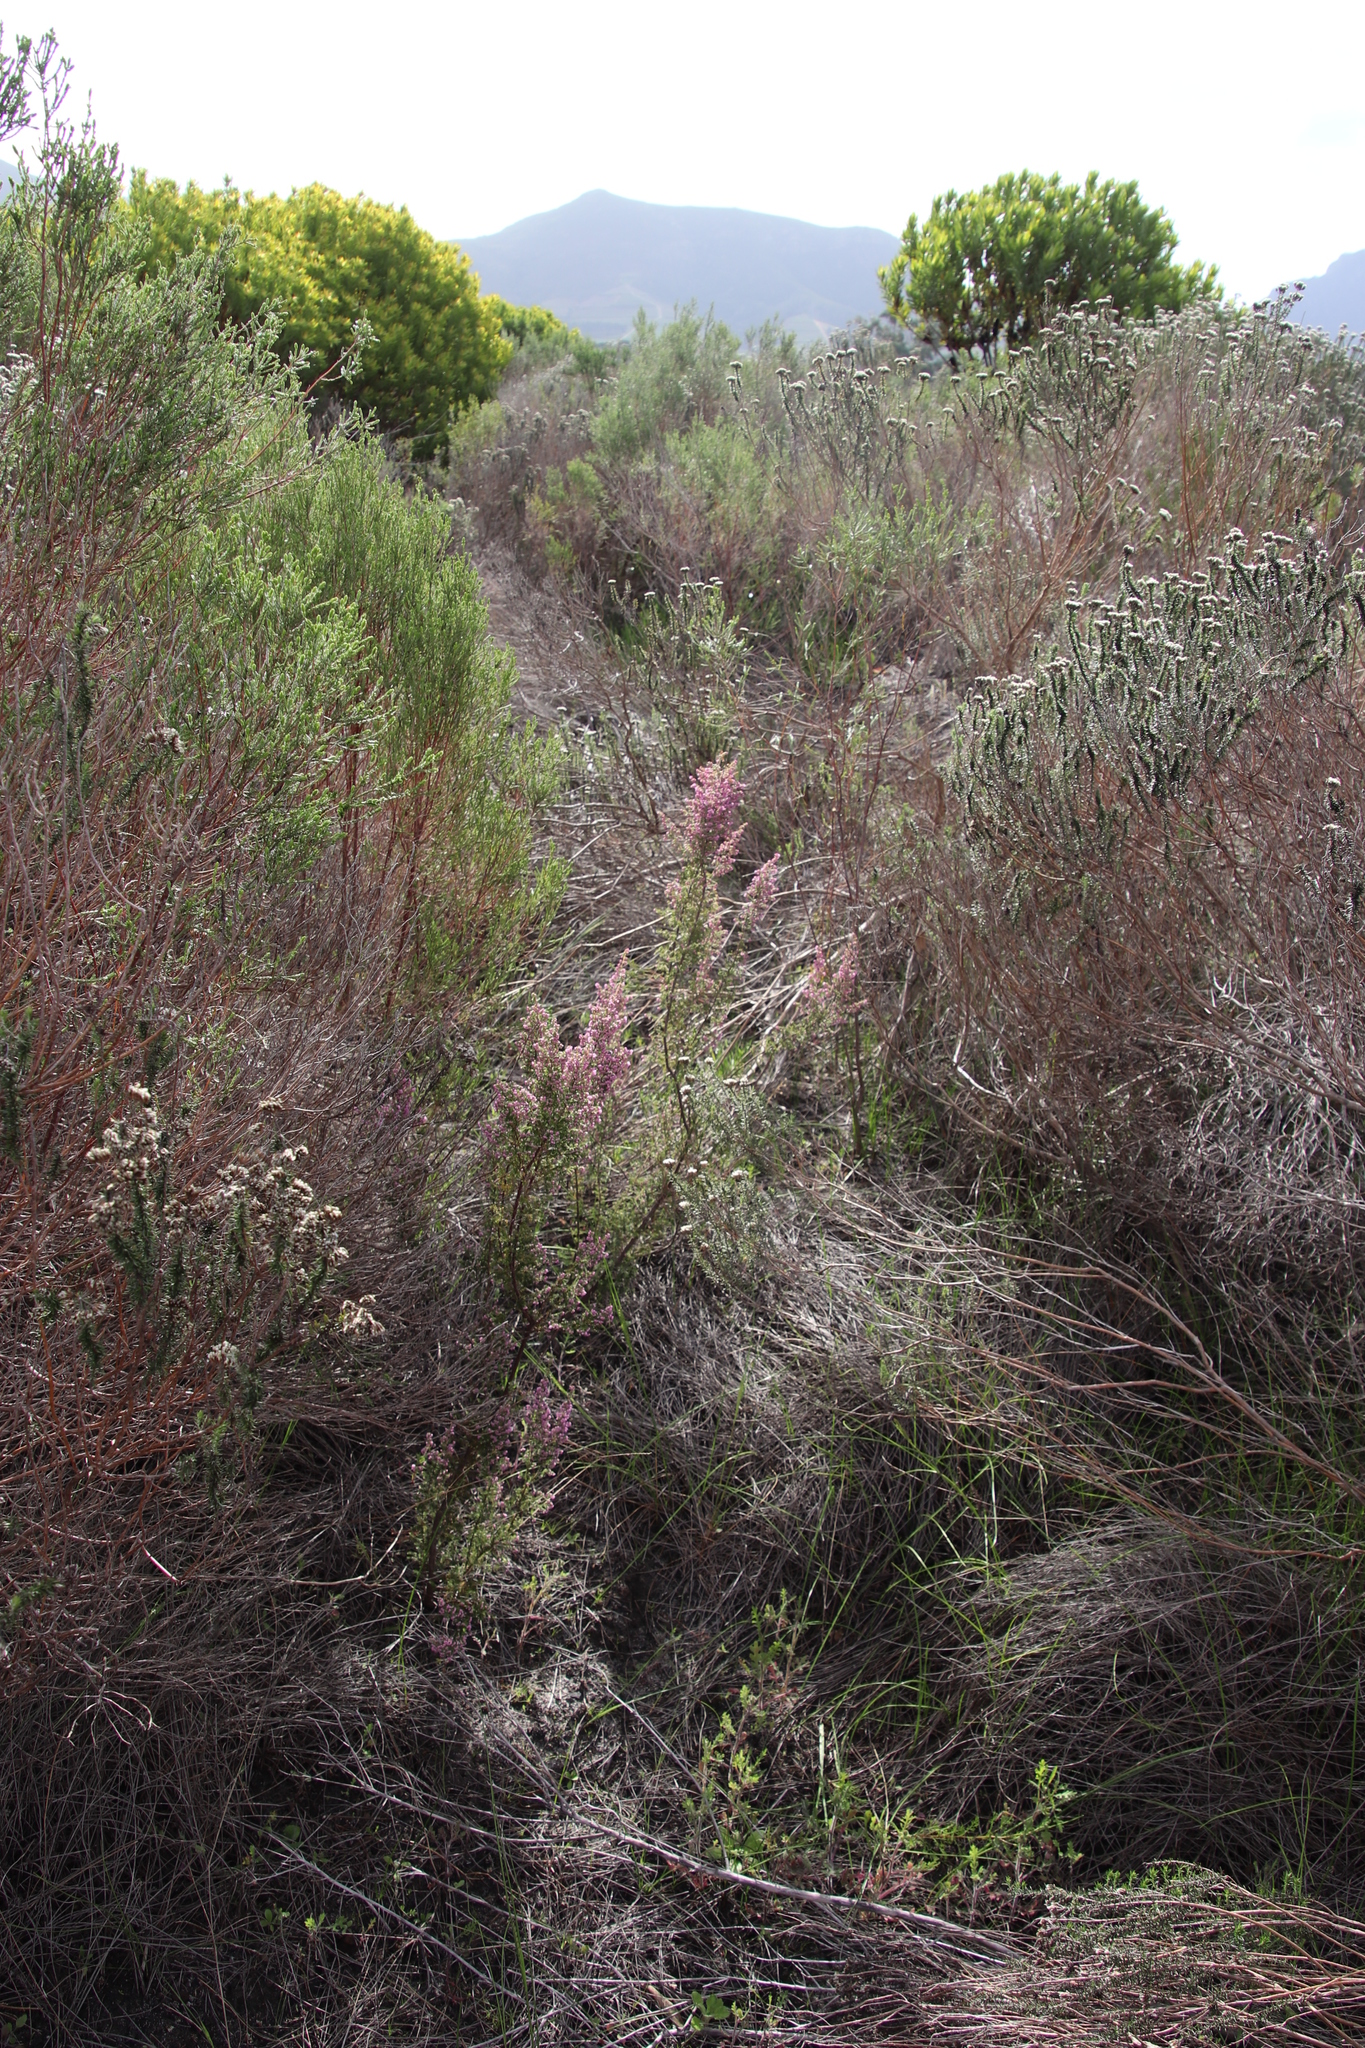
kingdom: Plantae
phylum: Tracheophyta
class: Magnoliopsida
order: Ericales
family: Ericaceae
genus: Erica
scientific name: Erica mauritanica
